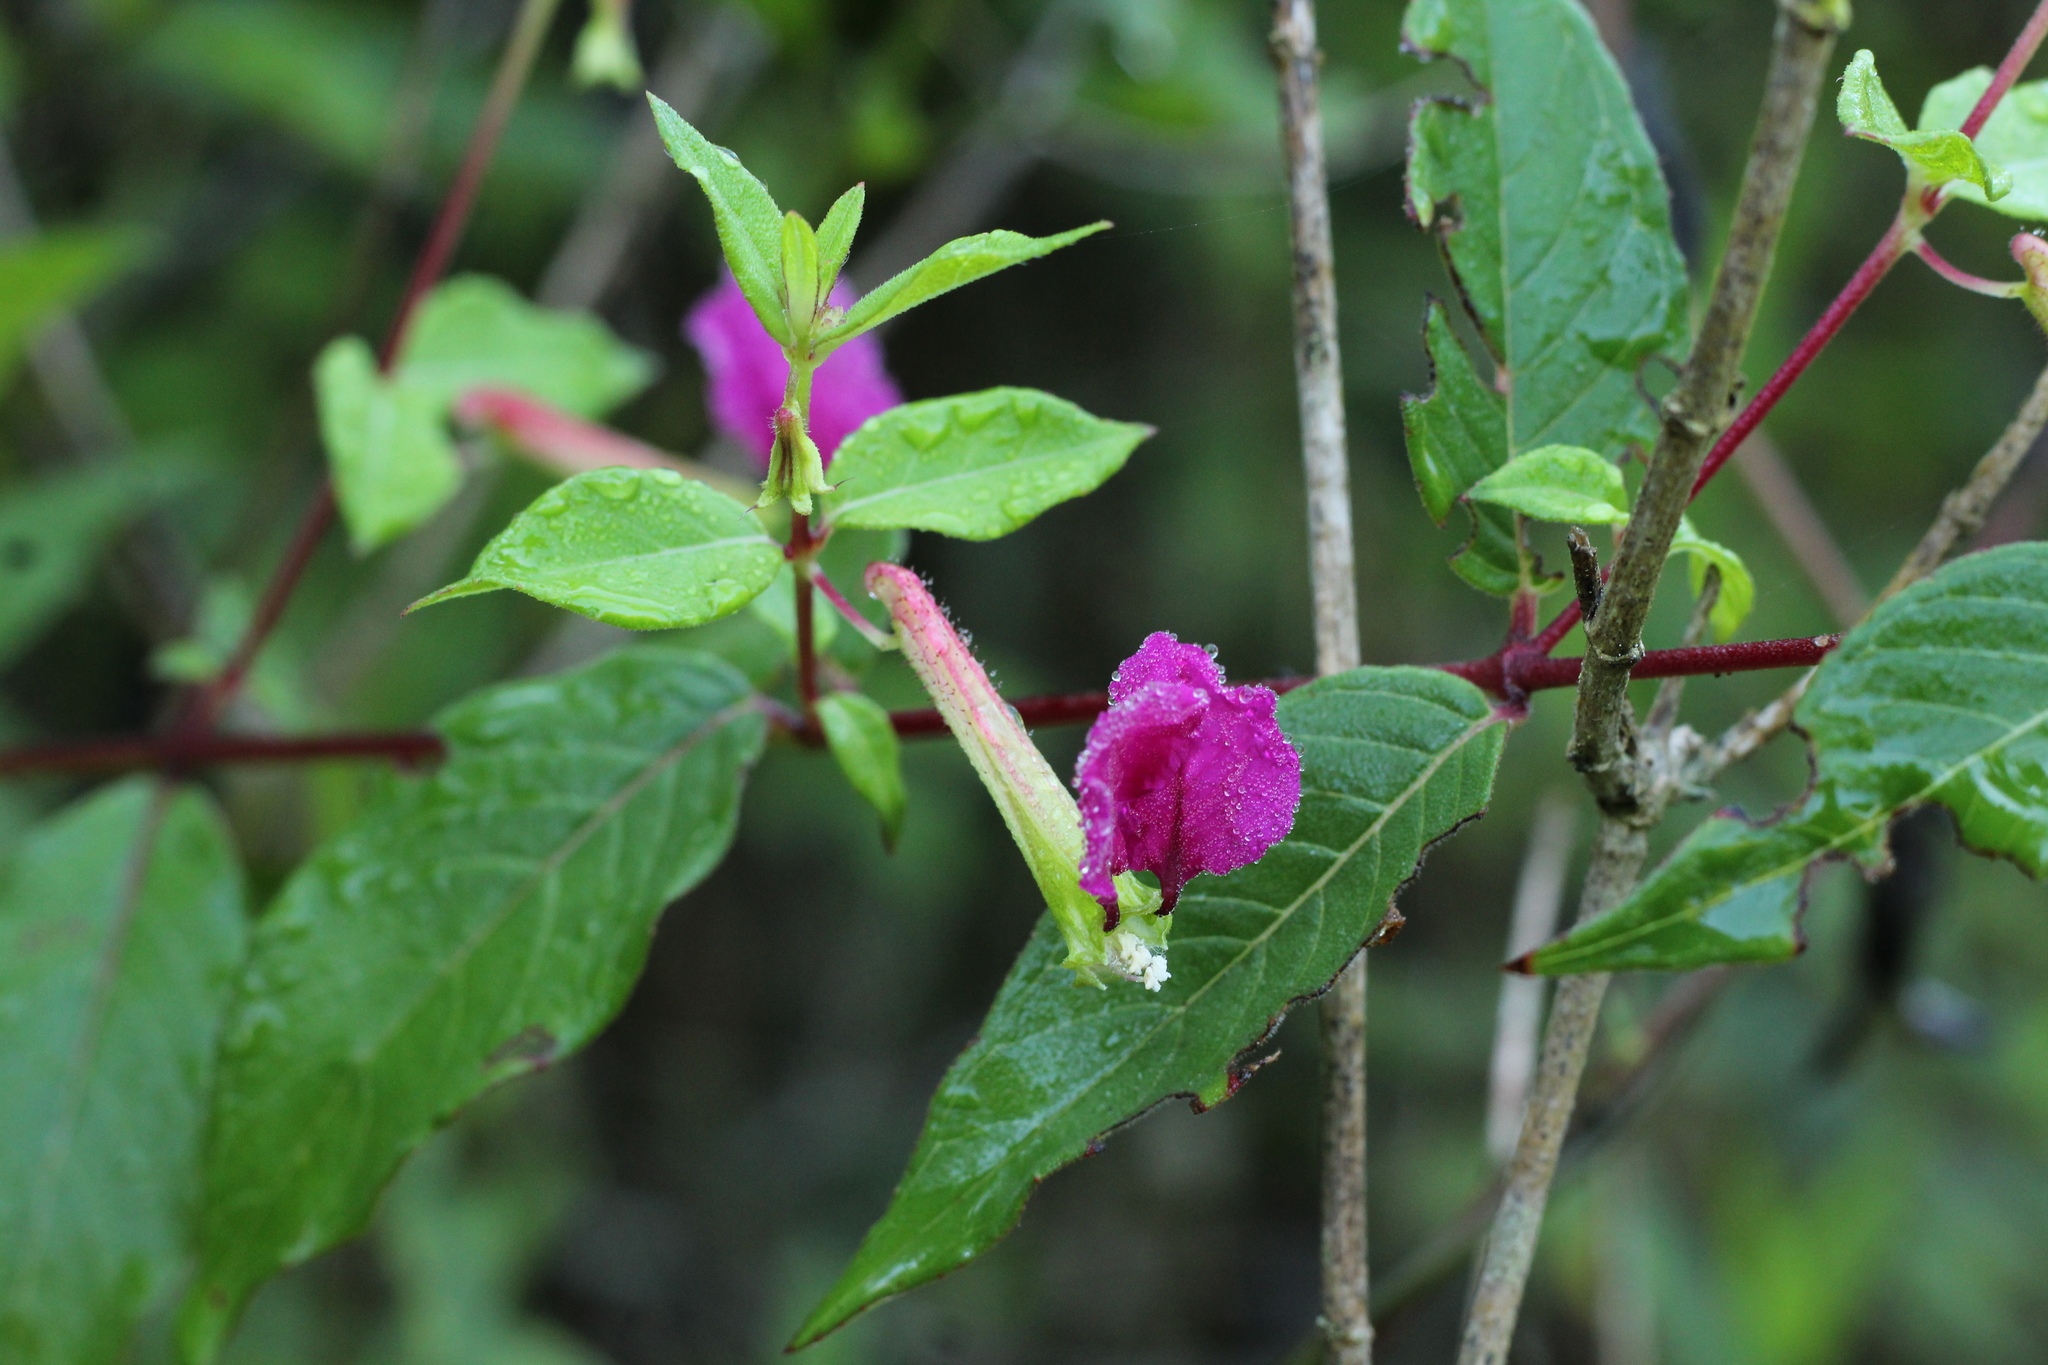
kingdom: Plantae
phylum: Tracheophyta
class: Magnoliopsida
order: Myrtales
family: Lythraceae
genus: Cuphea
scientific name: Cuphea nitidula
